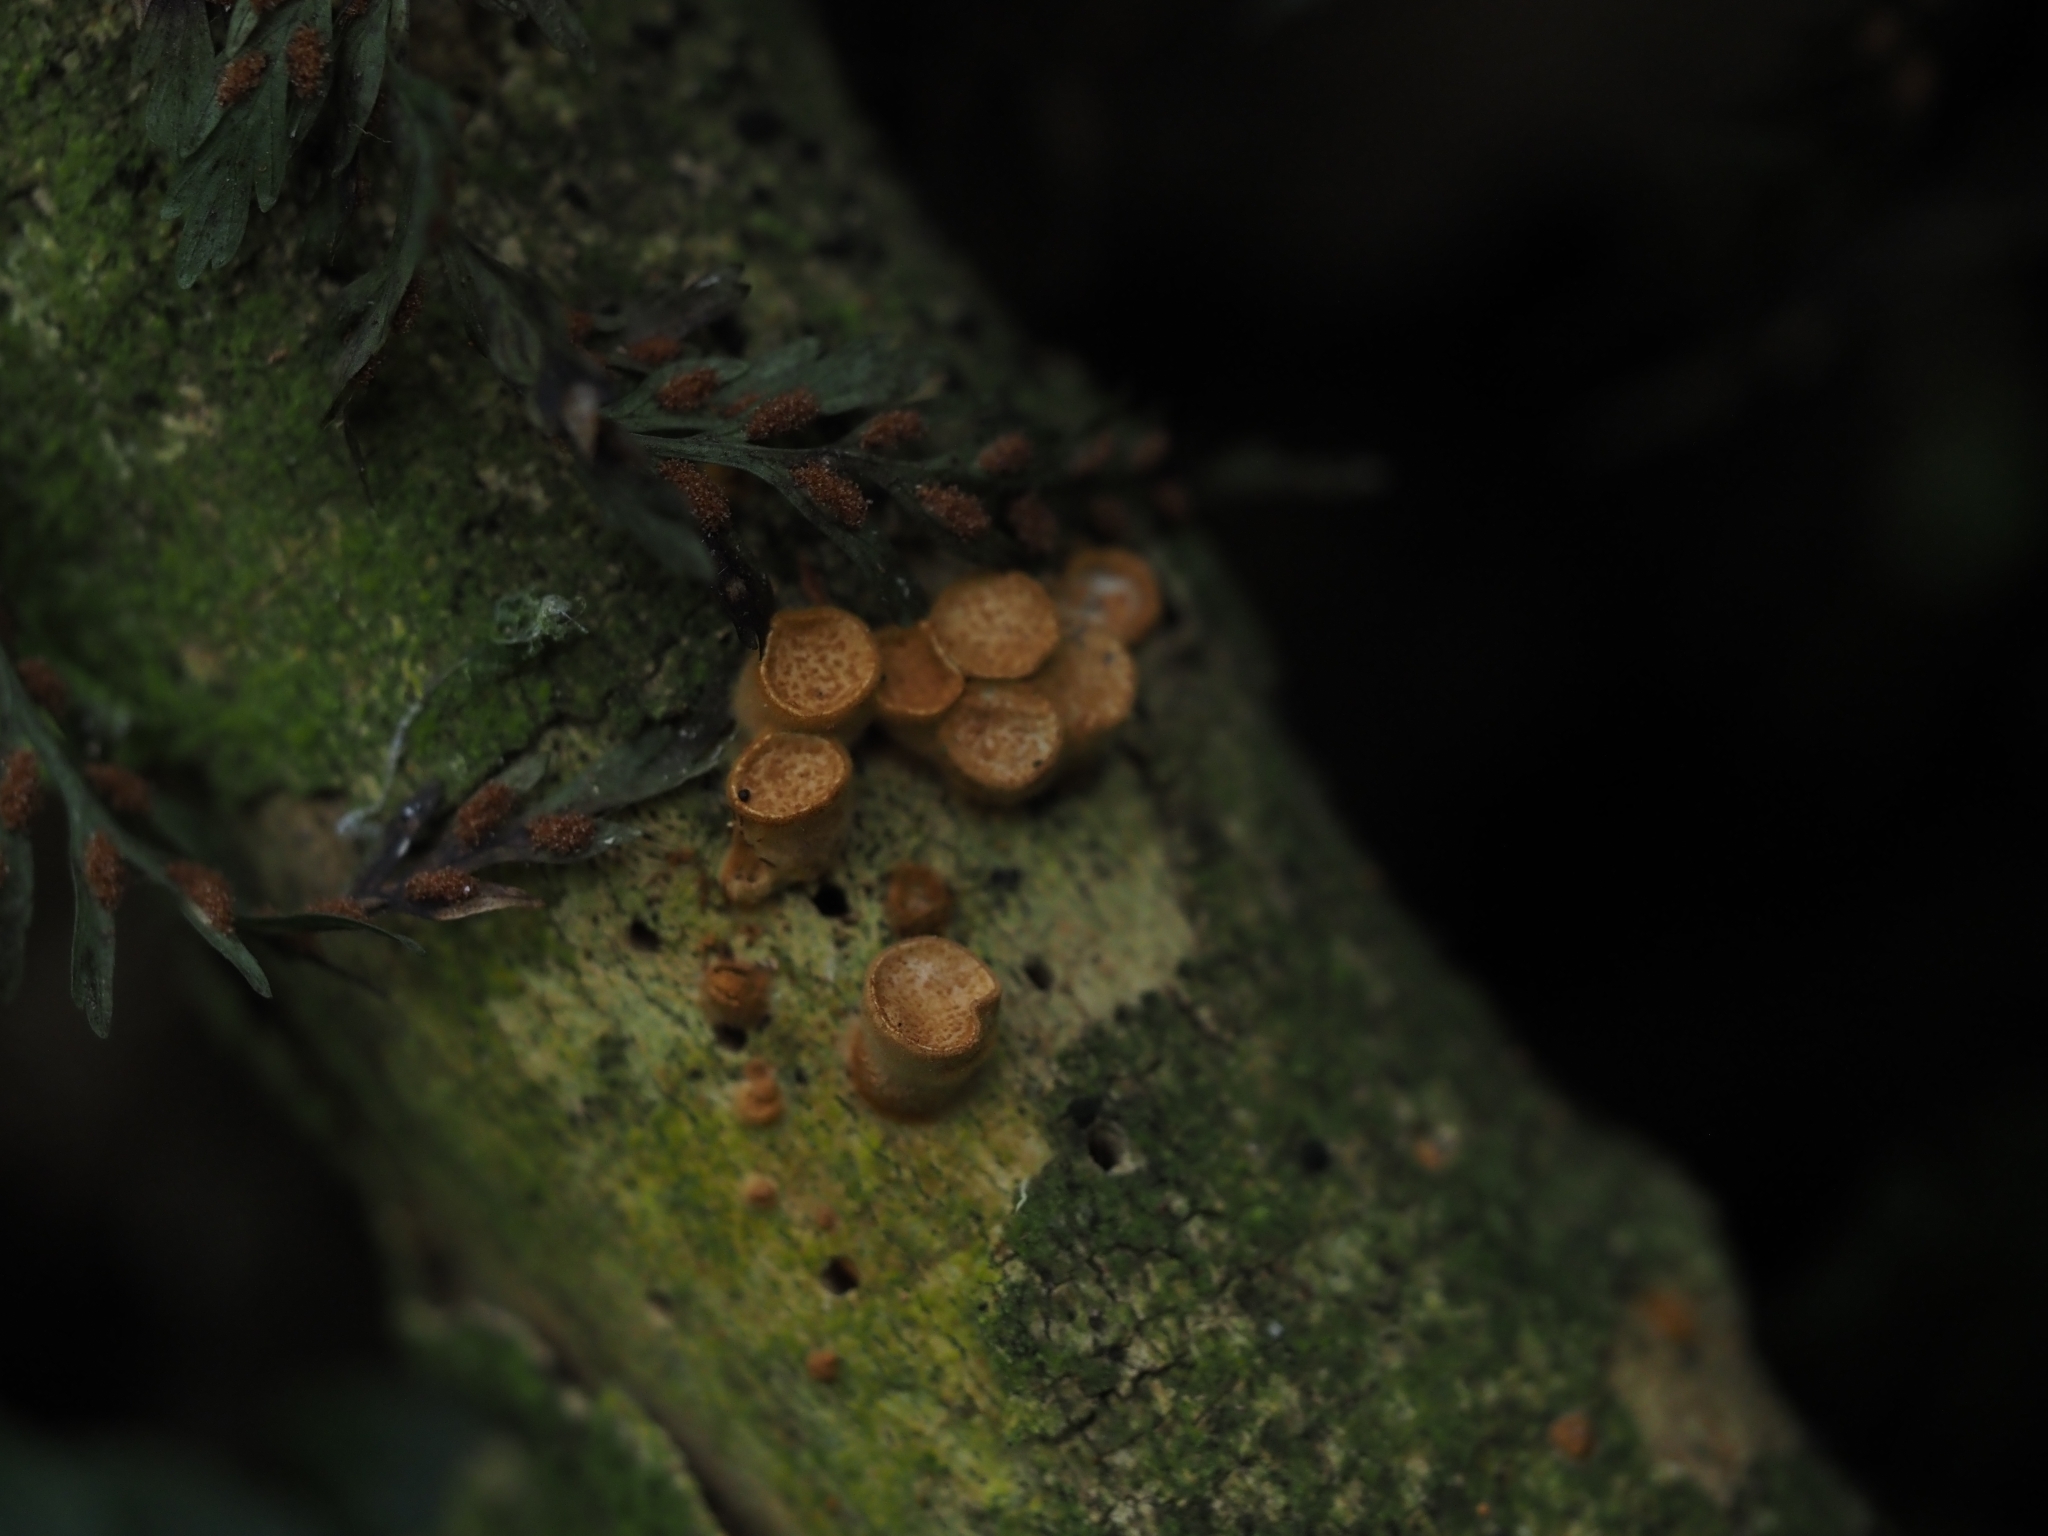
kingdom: Fungi
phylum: Basidiomycota
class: Agaricomycetes
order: Agaricales
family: Nidulariaceae
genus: Crucibulum
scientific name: Crucibulum simile
